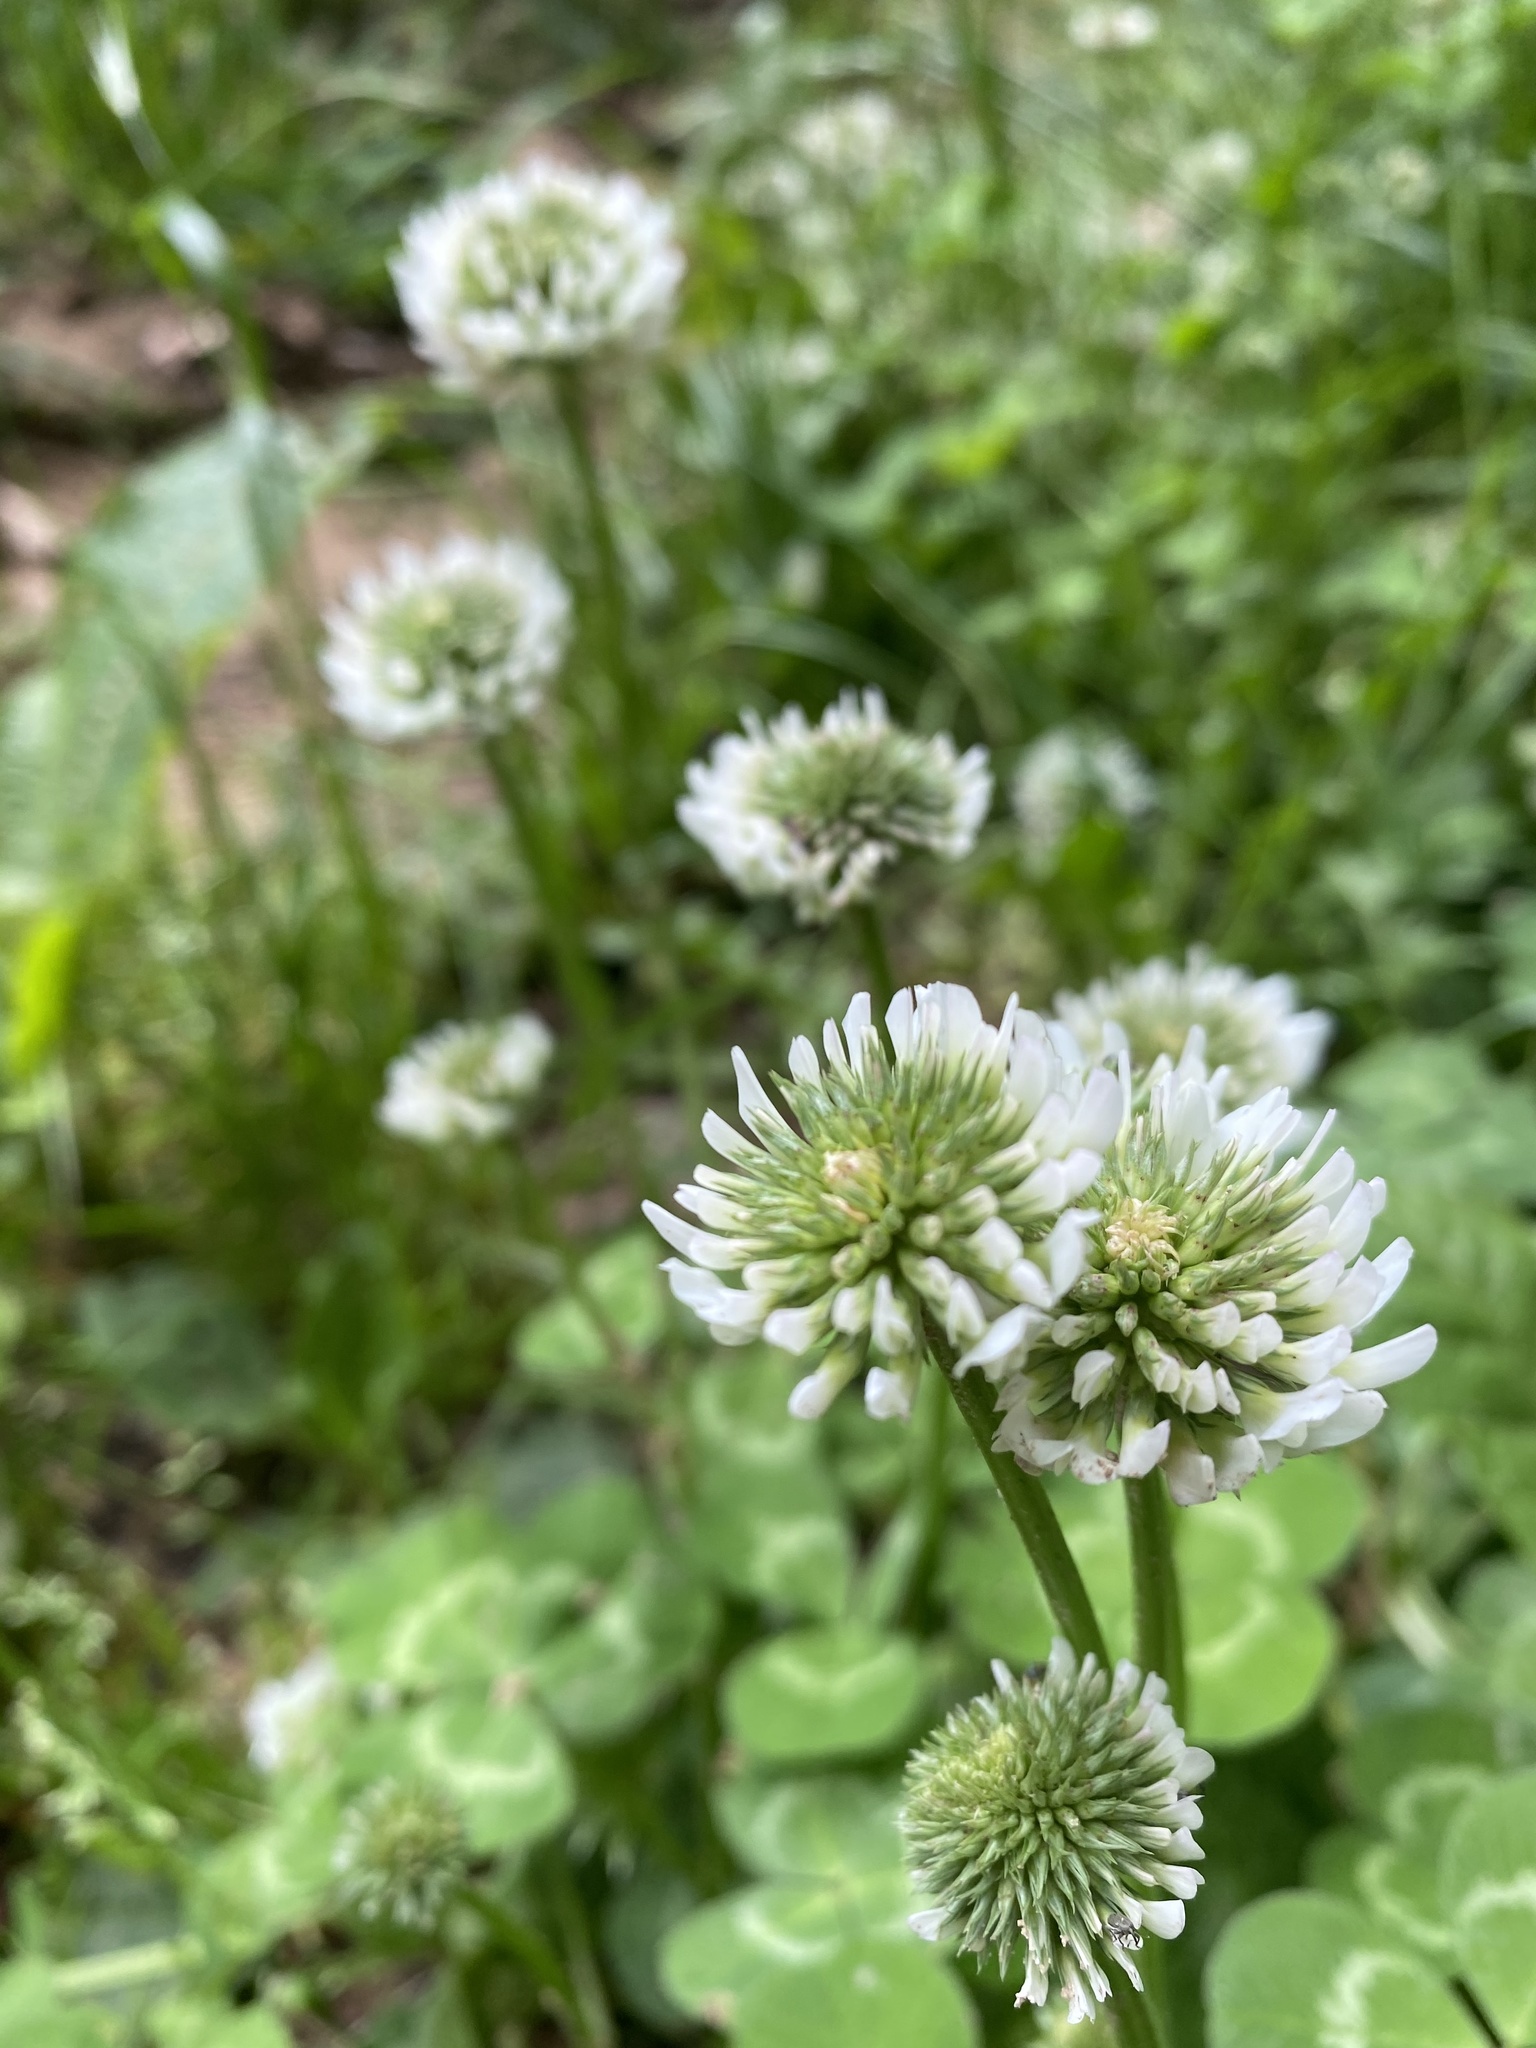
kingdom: Plantae
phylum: Tracheophyta
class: Magnoliopsida
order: Fabales
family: Fabaceae
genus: Trifolium
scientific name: Trifolium repens
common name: White clover
